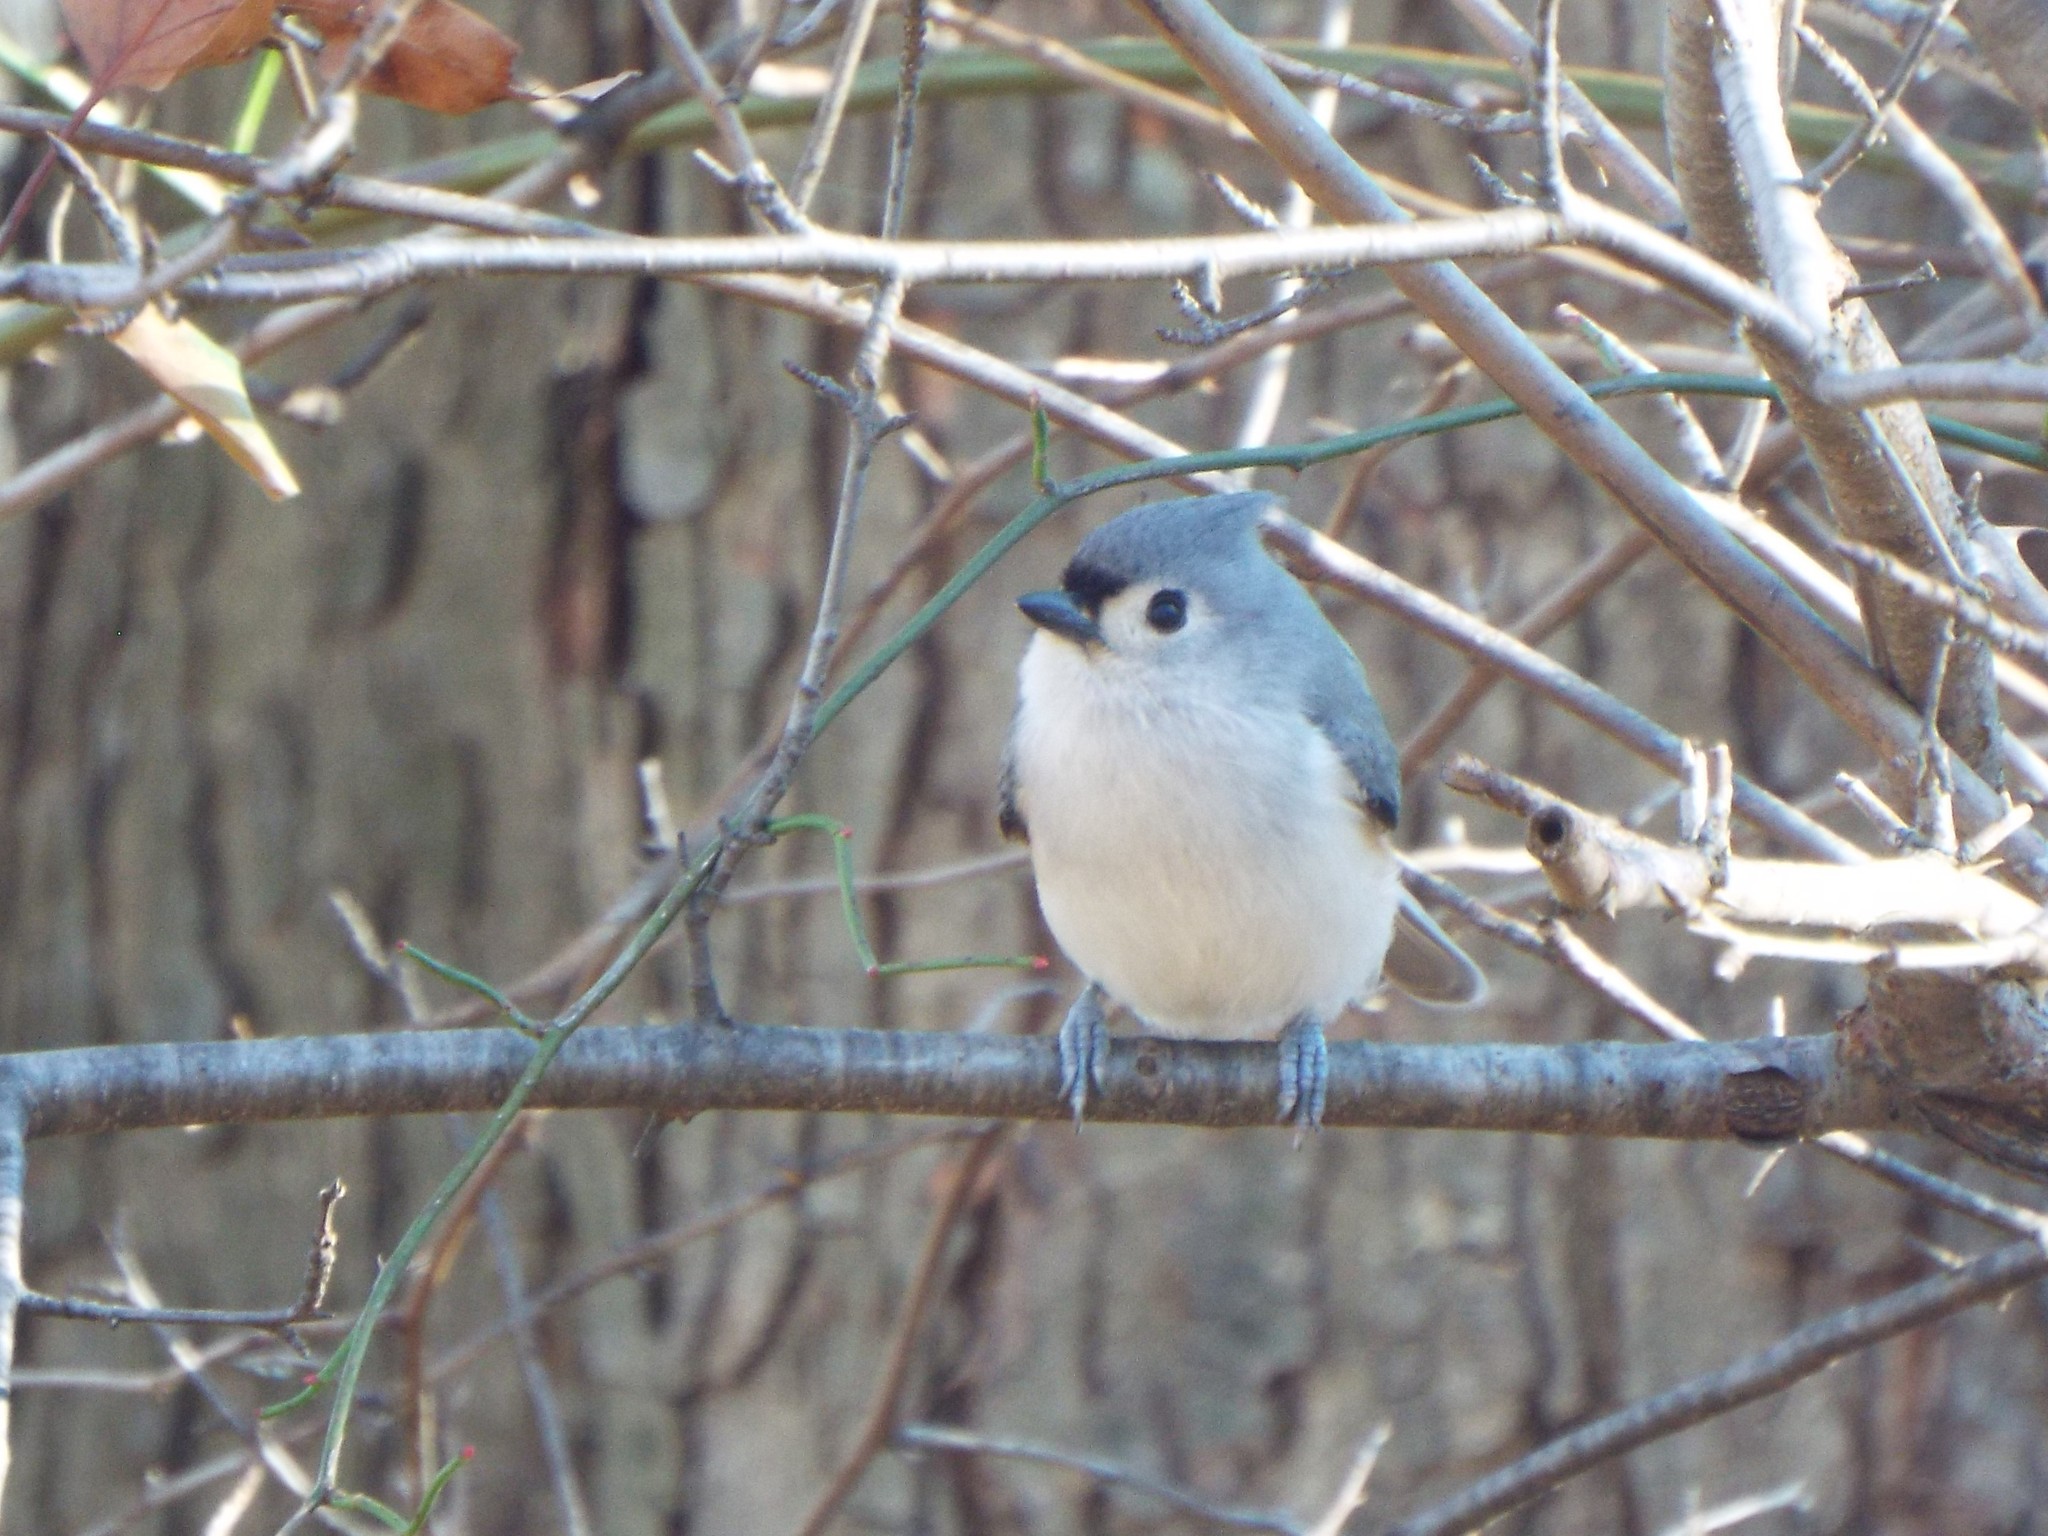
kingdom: Animalia
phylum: Chordata
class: Aves
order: Passeriformes
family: Paridae
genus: Baeolophus
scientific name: Baeolophus bicolor
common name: Tufted titmouse
